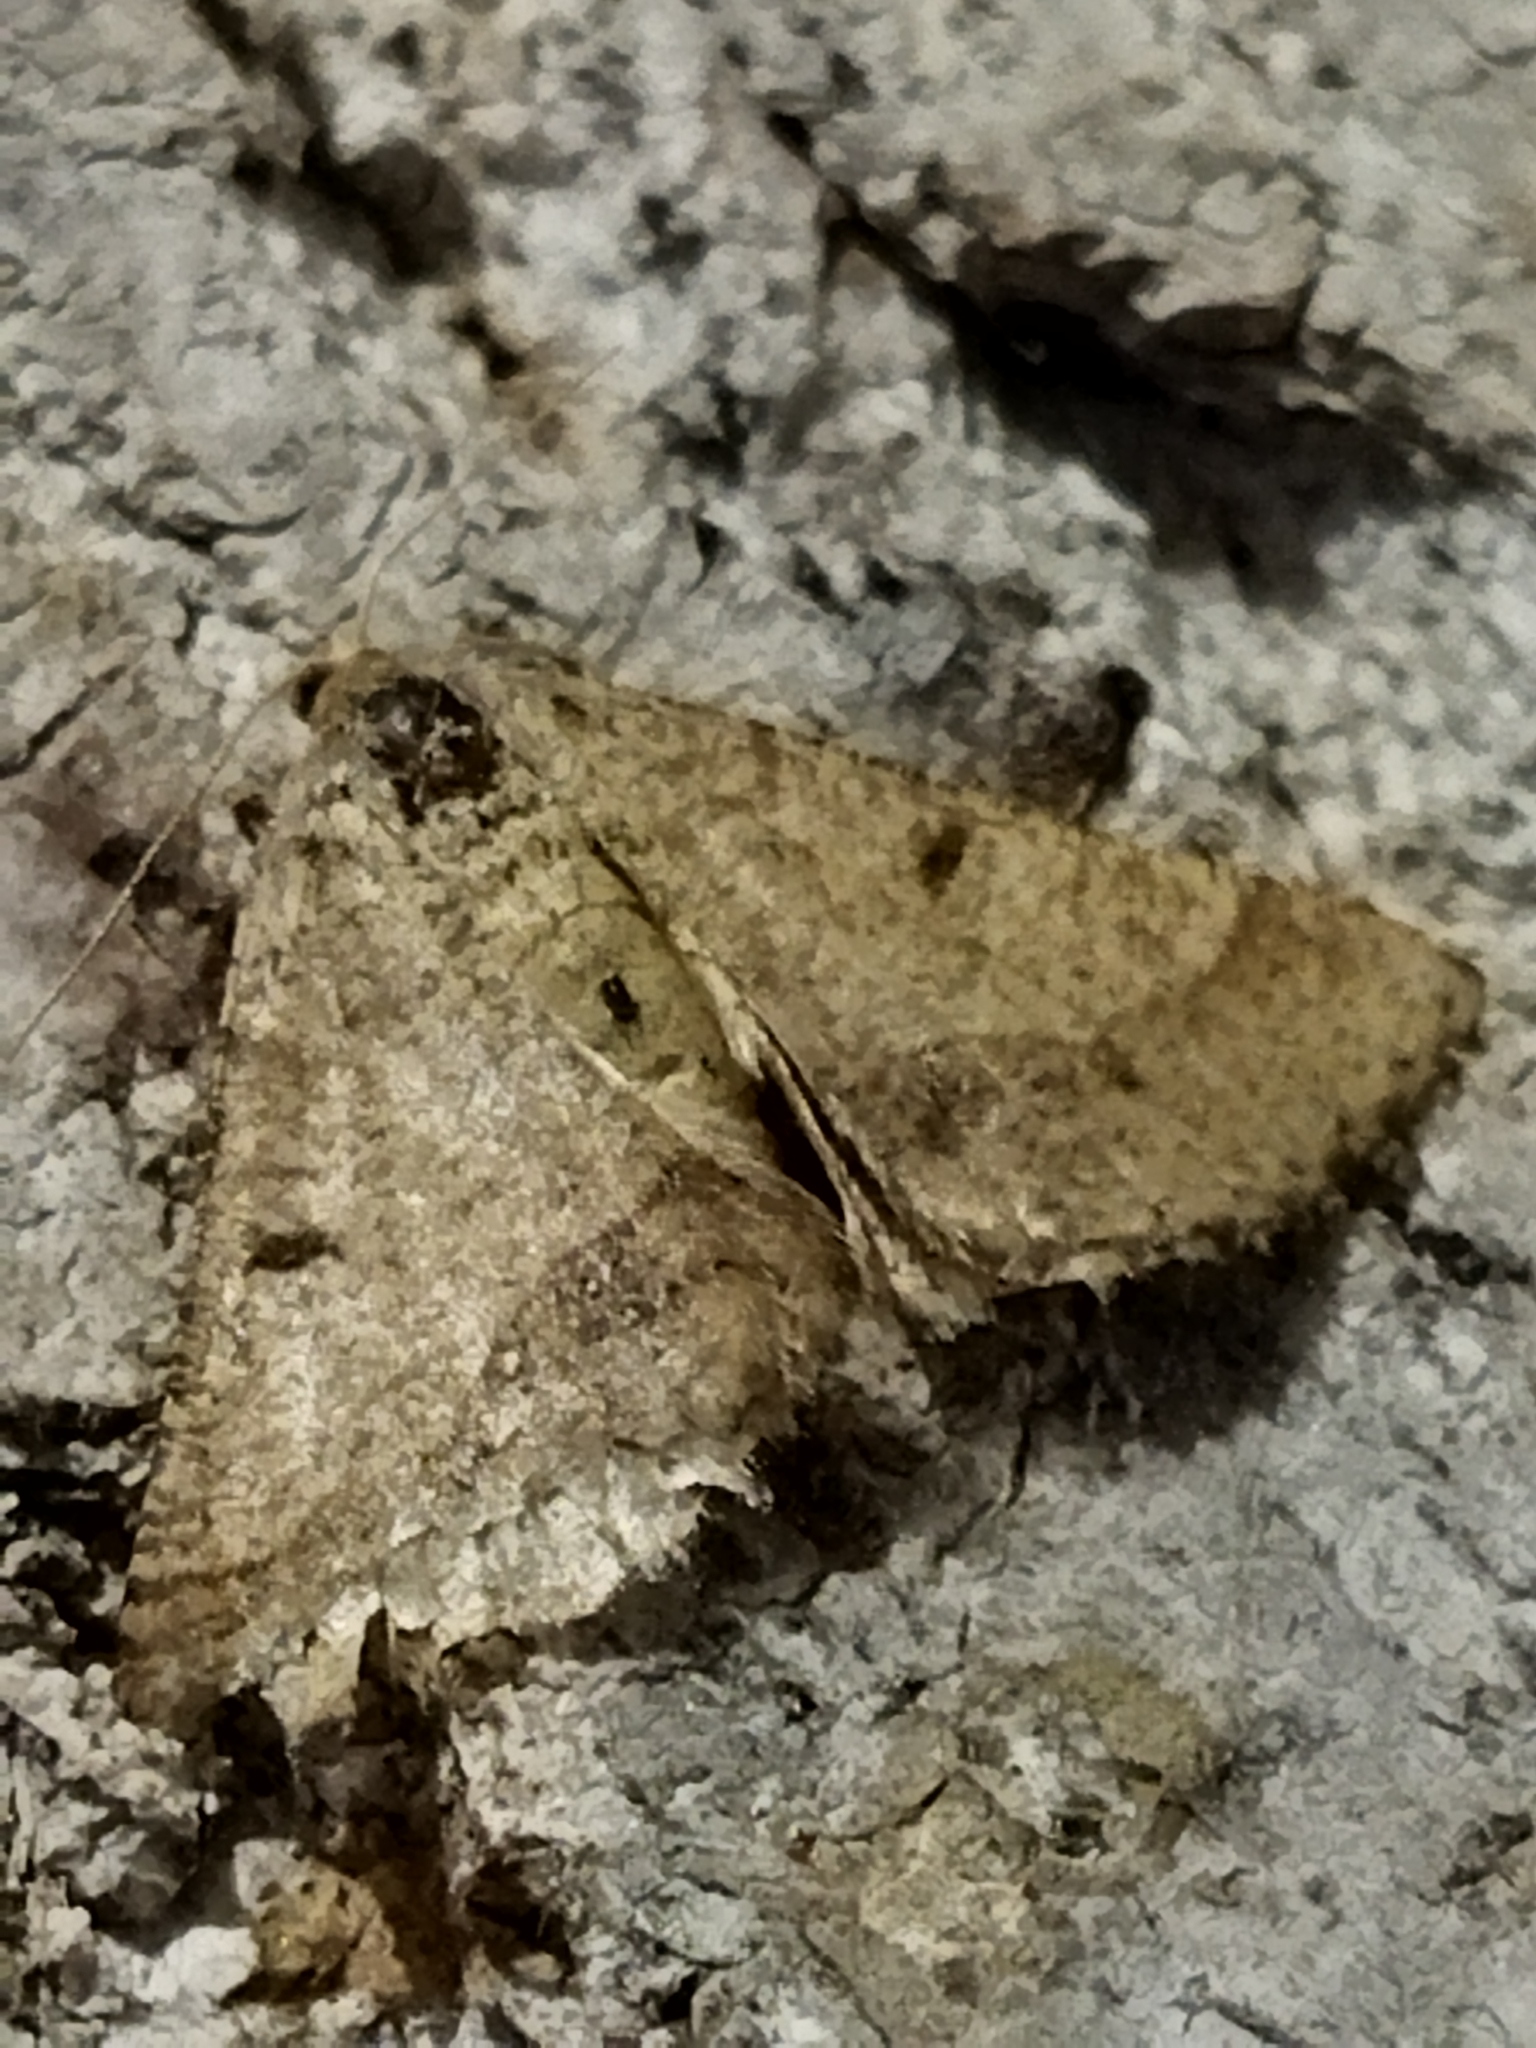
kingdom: Animalia
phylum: Arthropoda
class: Insecta
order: Lepidoptera
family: Geometridae
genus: Tephrina
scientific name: Tephrina murinaria
